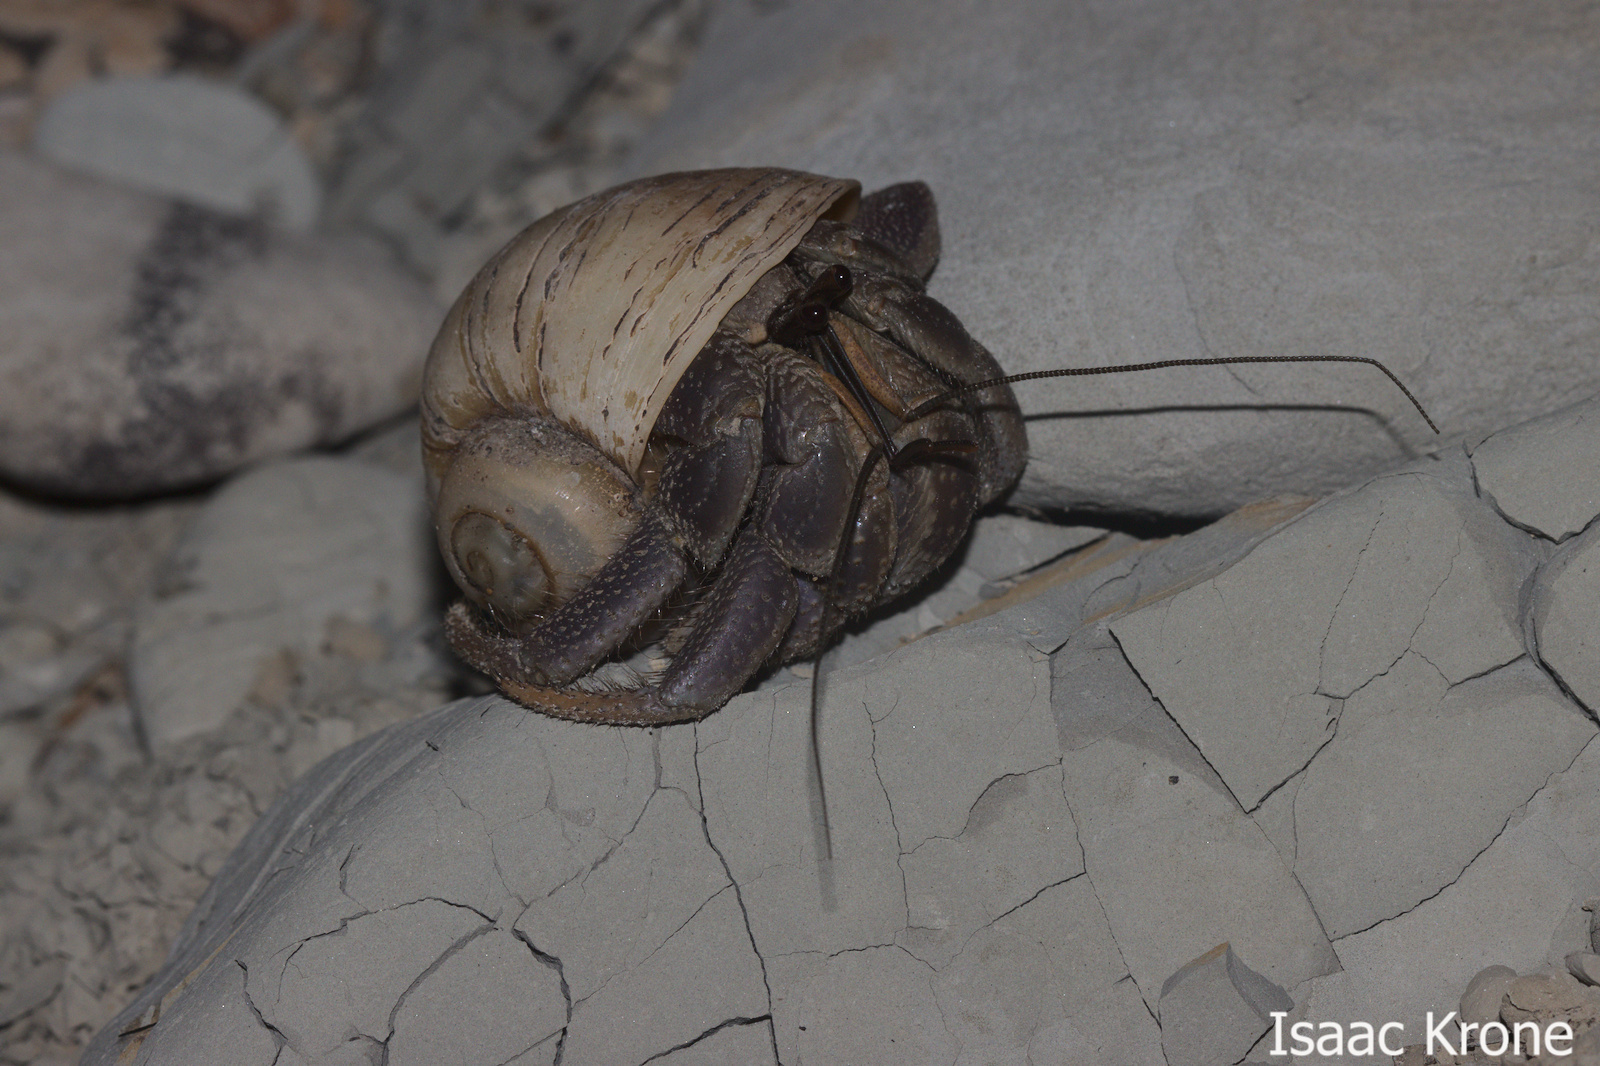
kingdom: Animalia
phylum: Arthropoda
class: Malacostraca
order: Decapoda
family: Coenobitidae
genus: Coenobita
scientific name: Coenobita brevimanus
